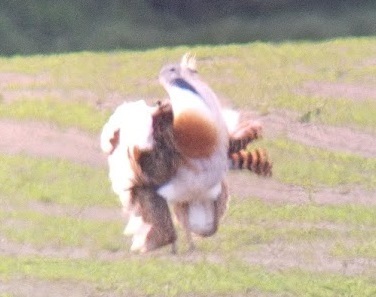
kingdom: Animalia
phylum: Chordata
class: Aves
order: Otidiformes
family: Otididae
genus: Otis
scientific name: Otis tarda
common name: Great bustard
